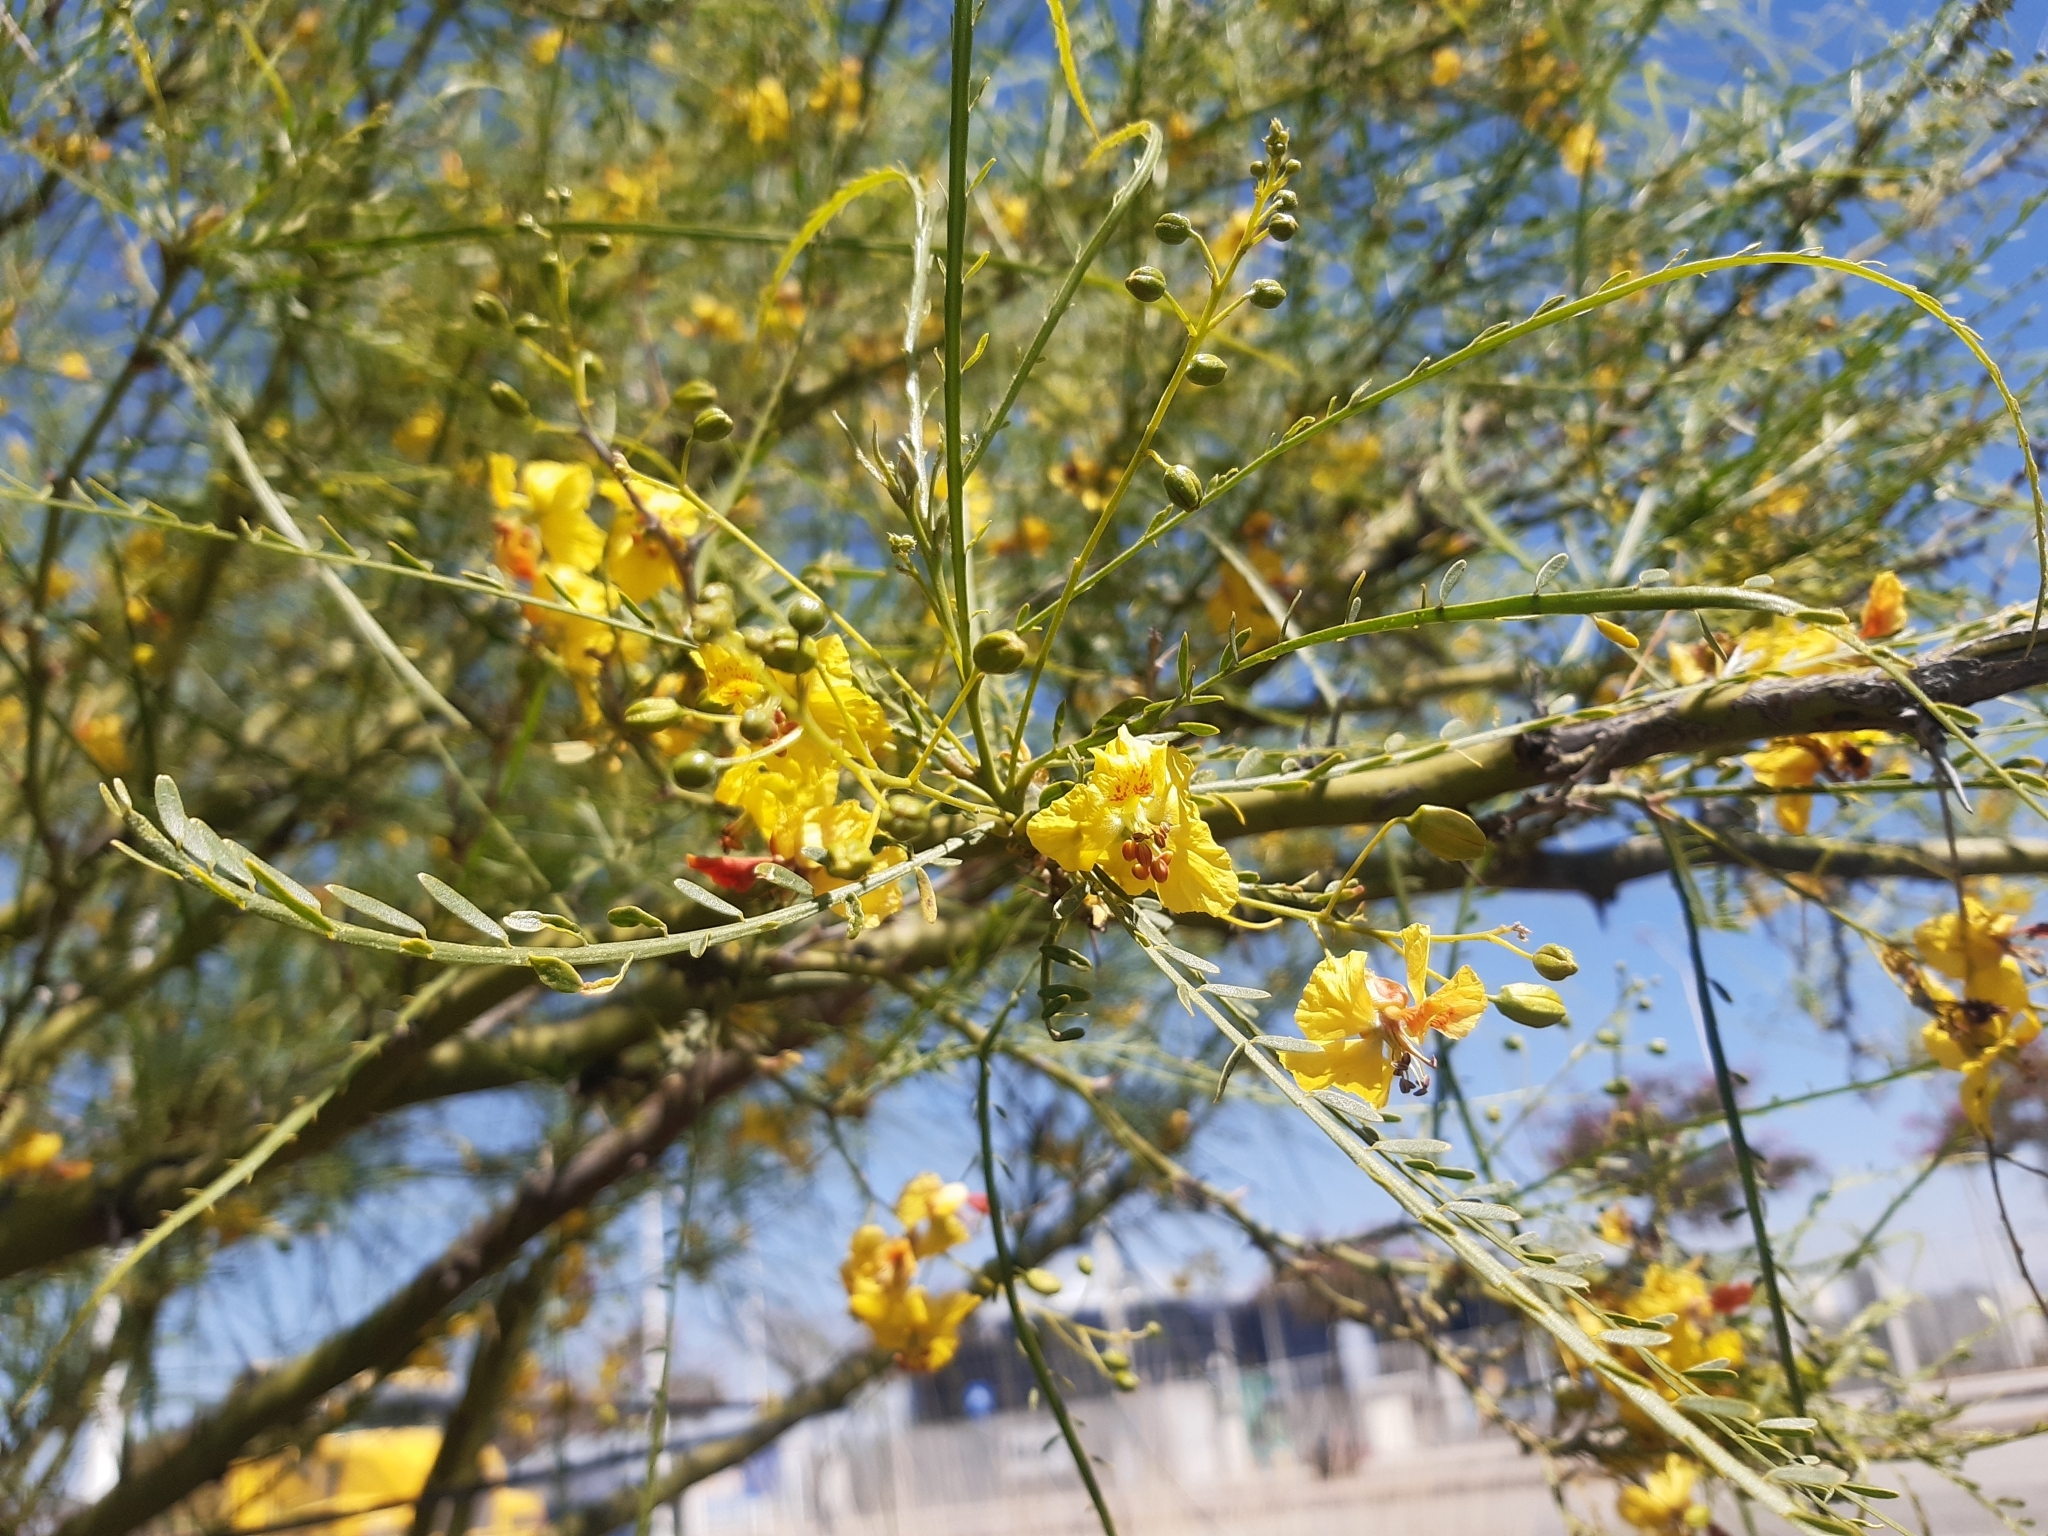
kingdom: Plantae
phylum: Tracheophyta
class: Magnoliopsida
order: Fabales
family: Fabaceae
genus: Parkinsonia
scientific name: Parkinsonia aculeata
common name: Jerusalem thorn
